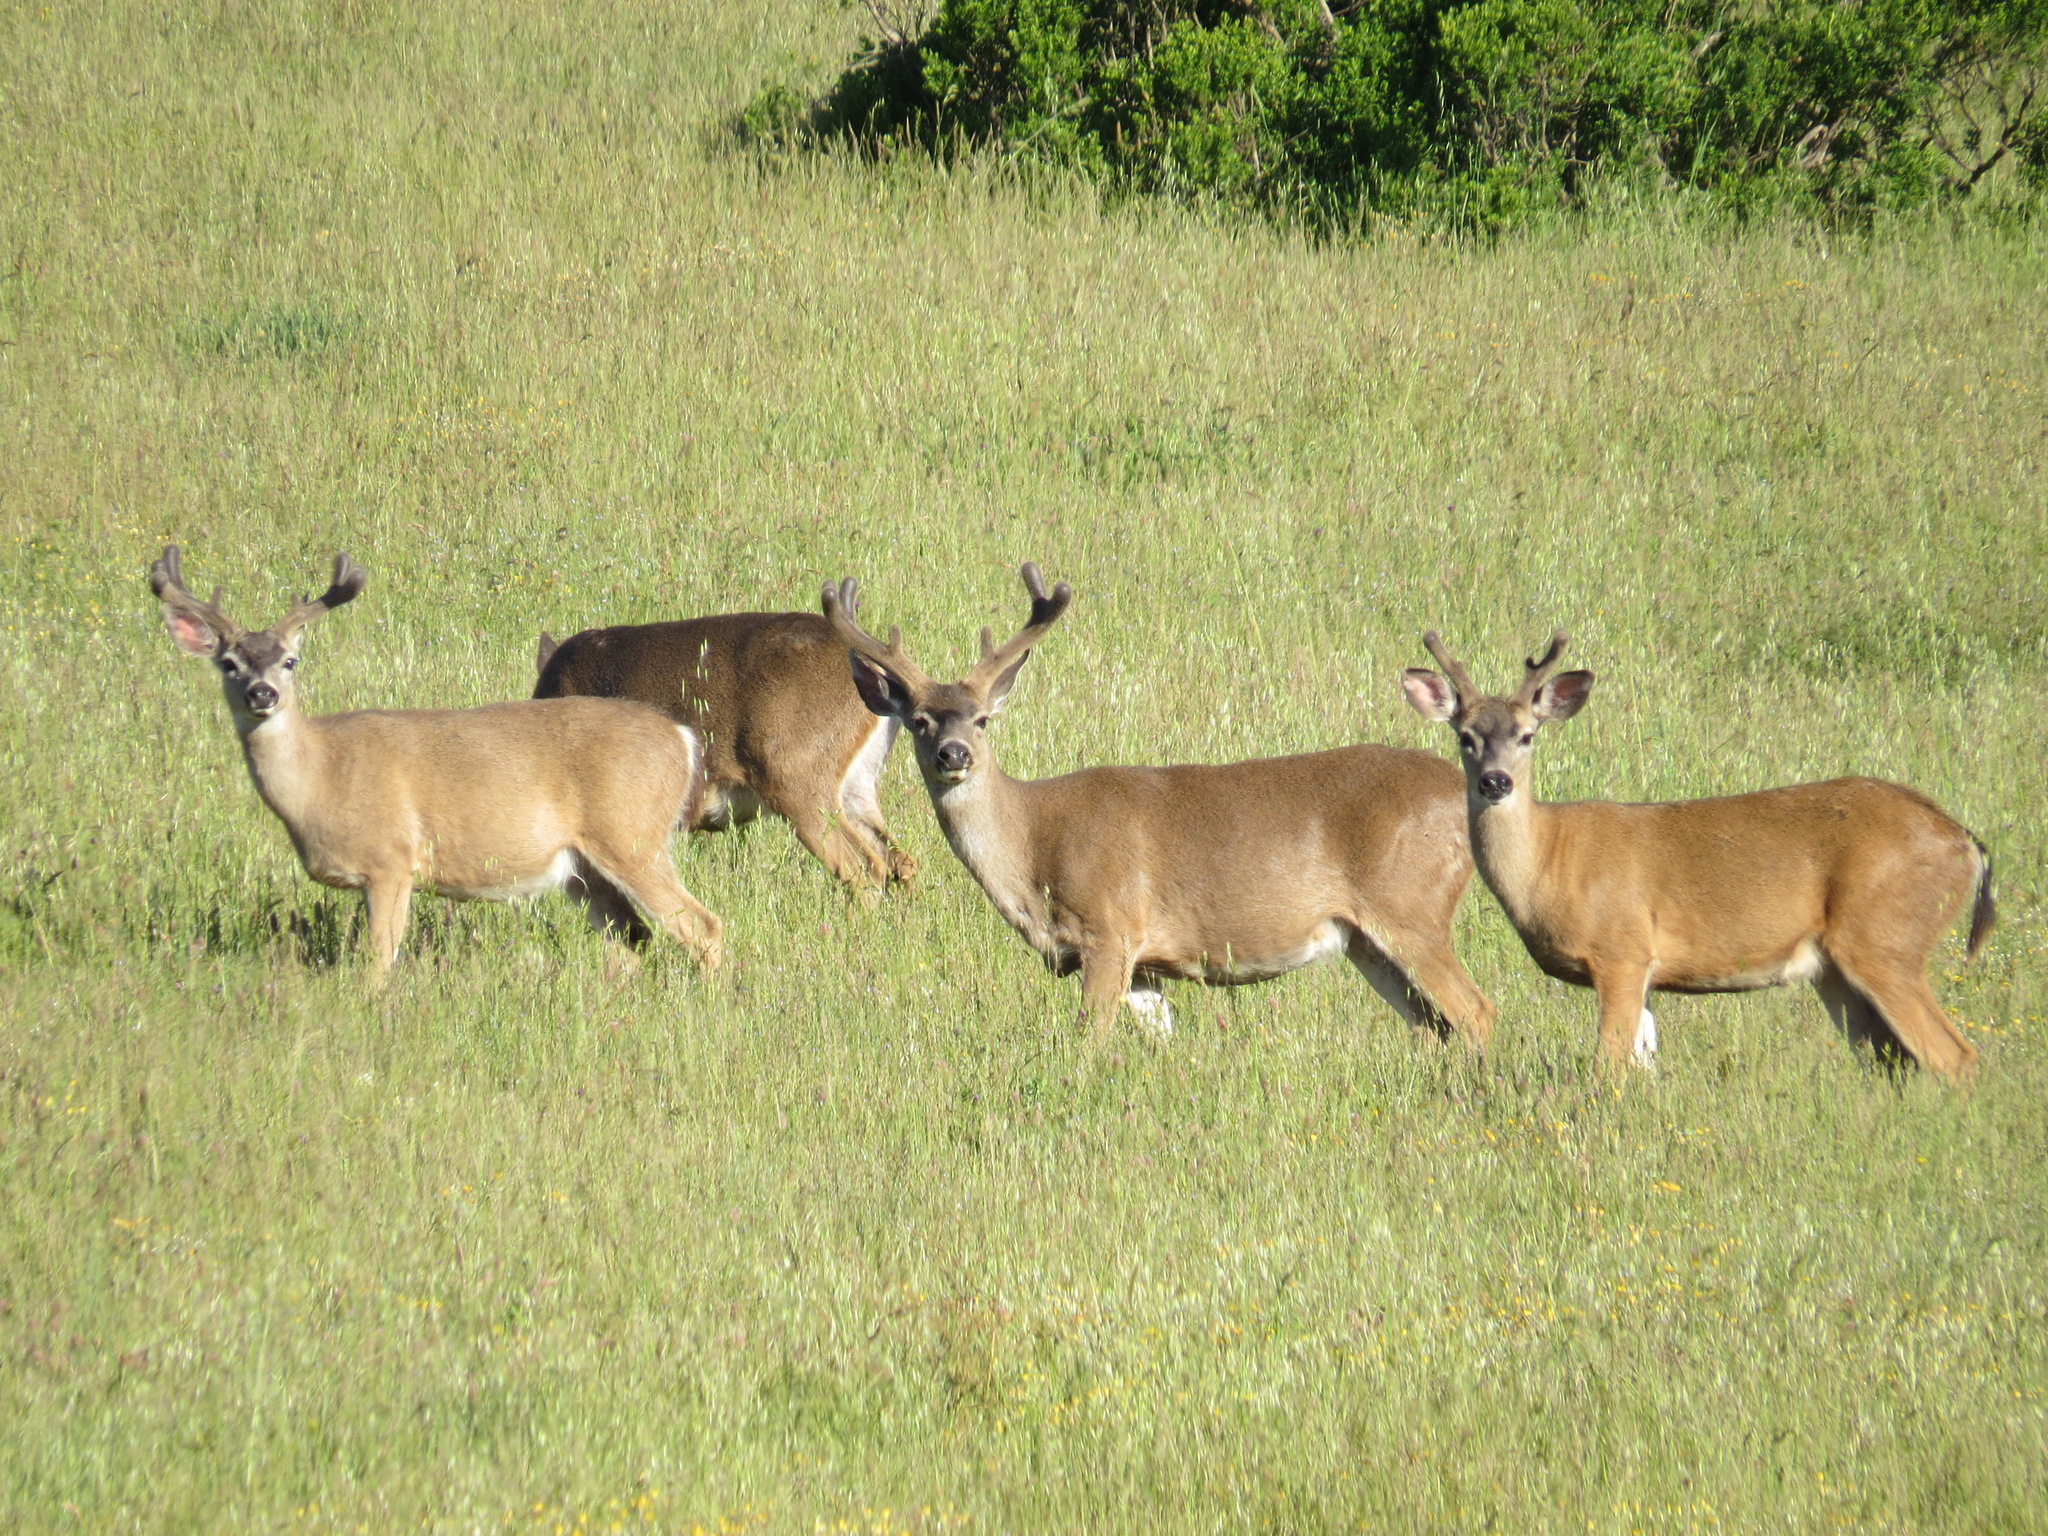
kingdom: Animalia
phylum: Chordata
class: Mammalia
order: Artiodactyla
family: Cervidae
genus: Odocoileus
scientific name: Odocoileus hemionus
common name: Mule deer
